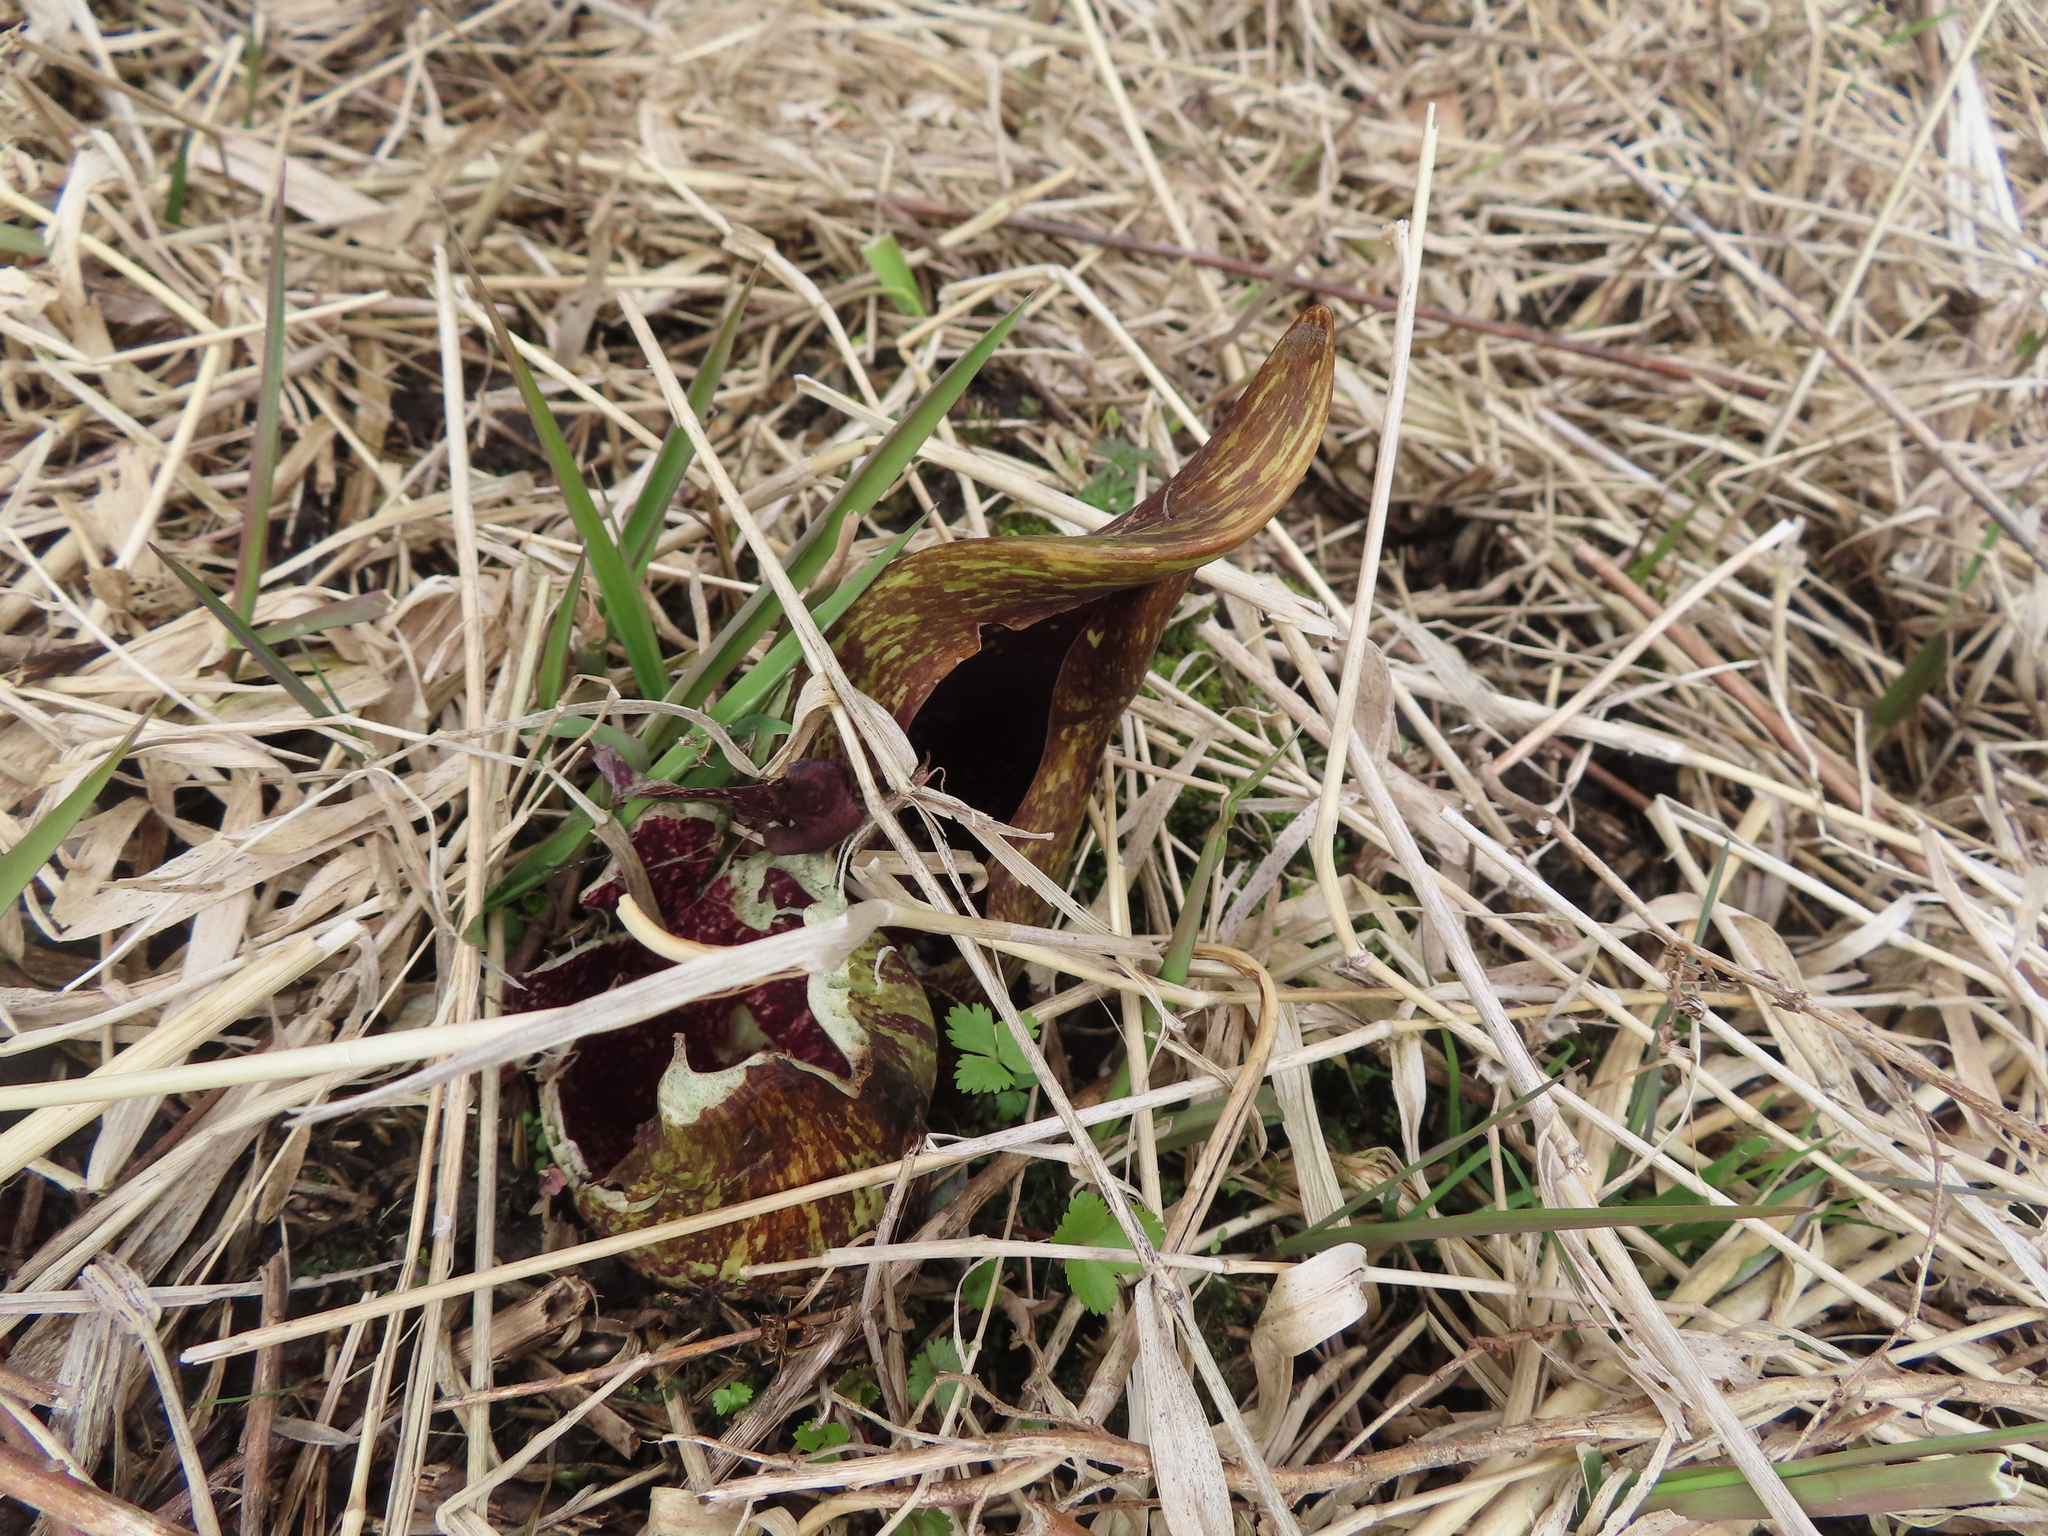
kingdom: Plantae
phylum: Tracheophyta
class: Liliopsida
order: Alismatales
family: Araceae
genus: Symplocarpus
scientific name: Symplocarpus foetidus
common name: Eastern skunk cabbage
